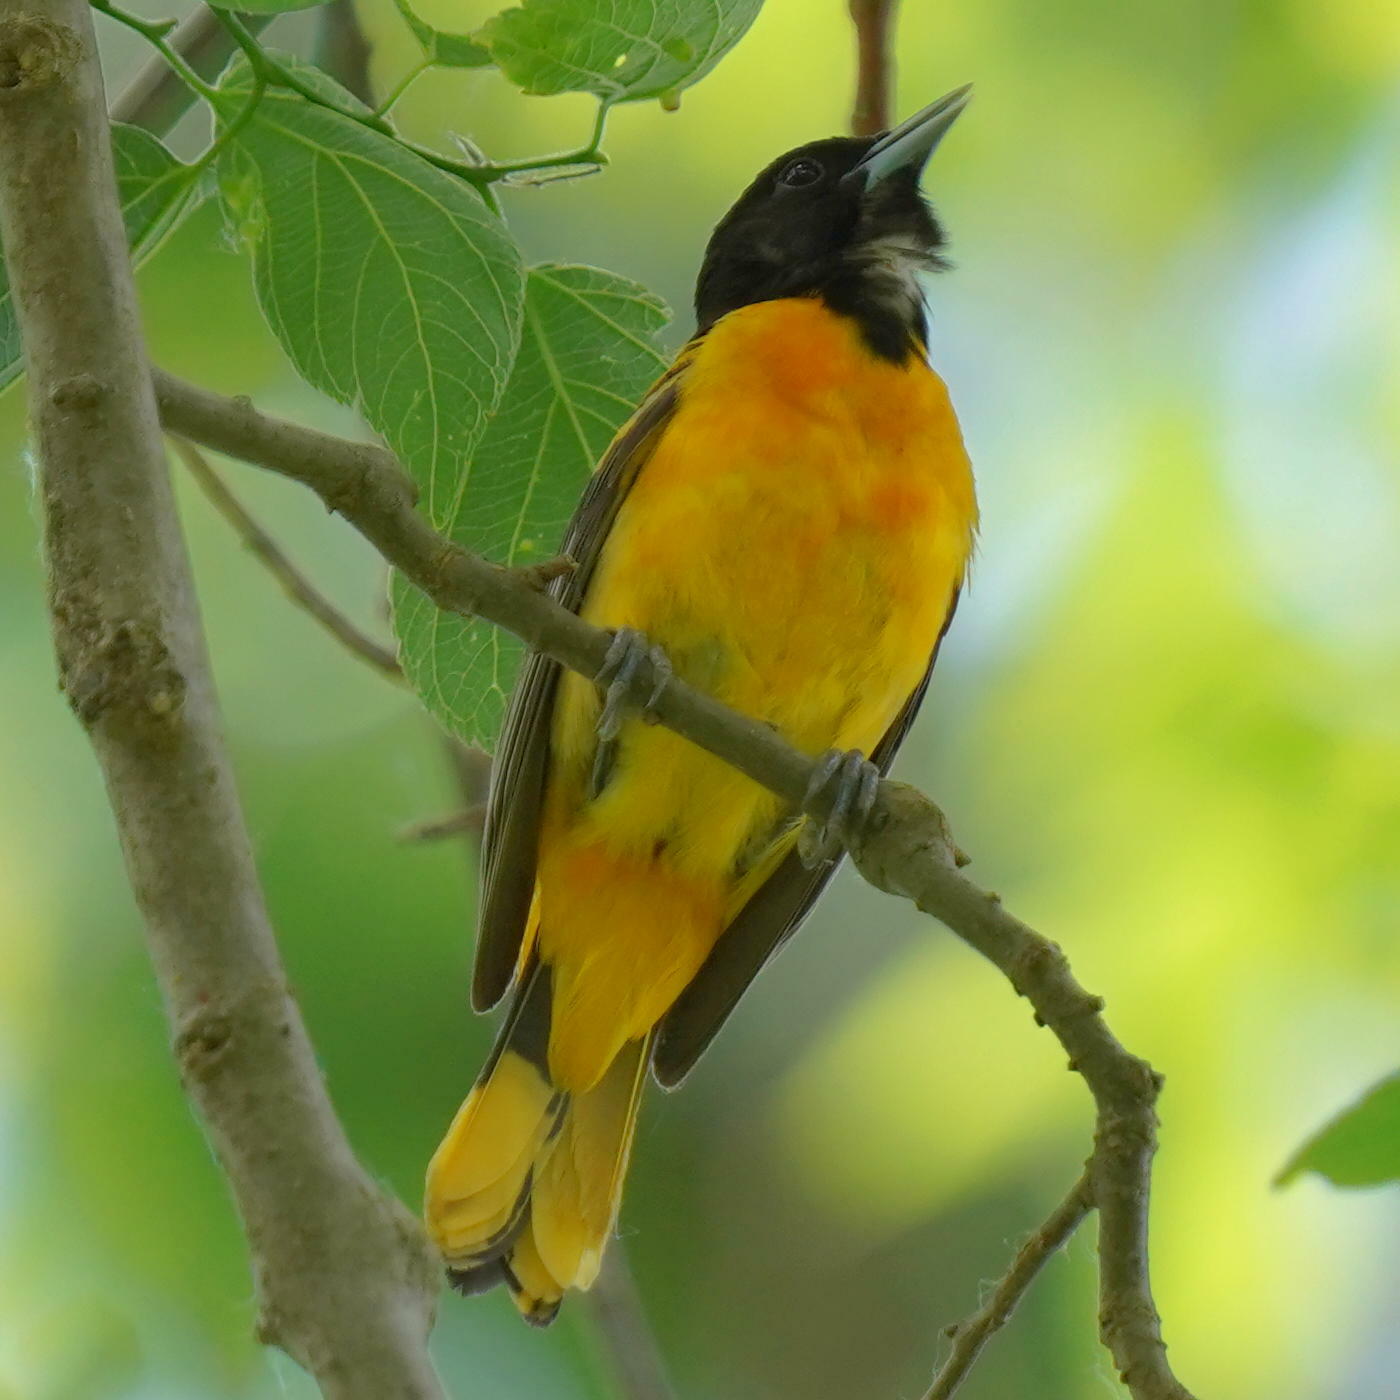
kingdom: Animalia
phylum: Chordata
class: Aves
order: Passeriformes
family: Icteridae
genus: Icterus
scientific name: Icterus galbula
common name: Baltimore oriole
